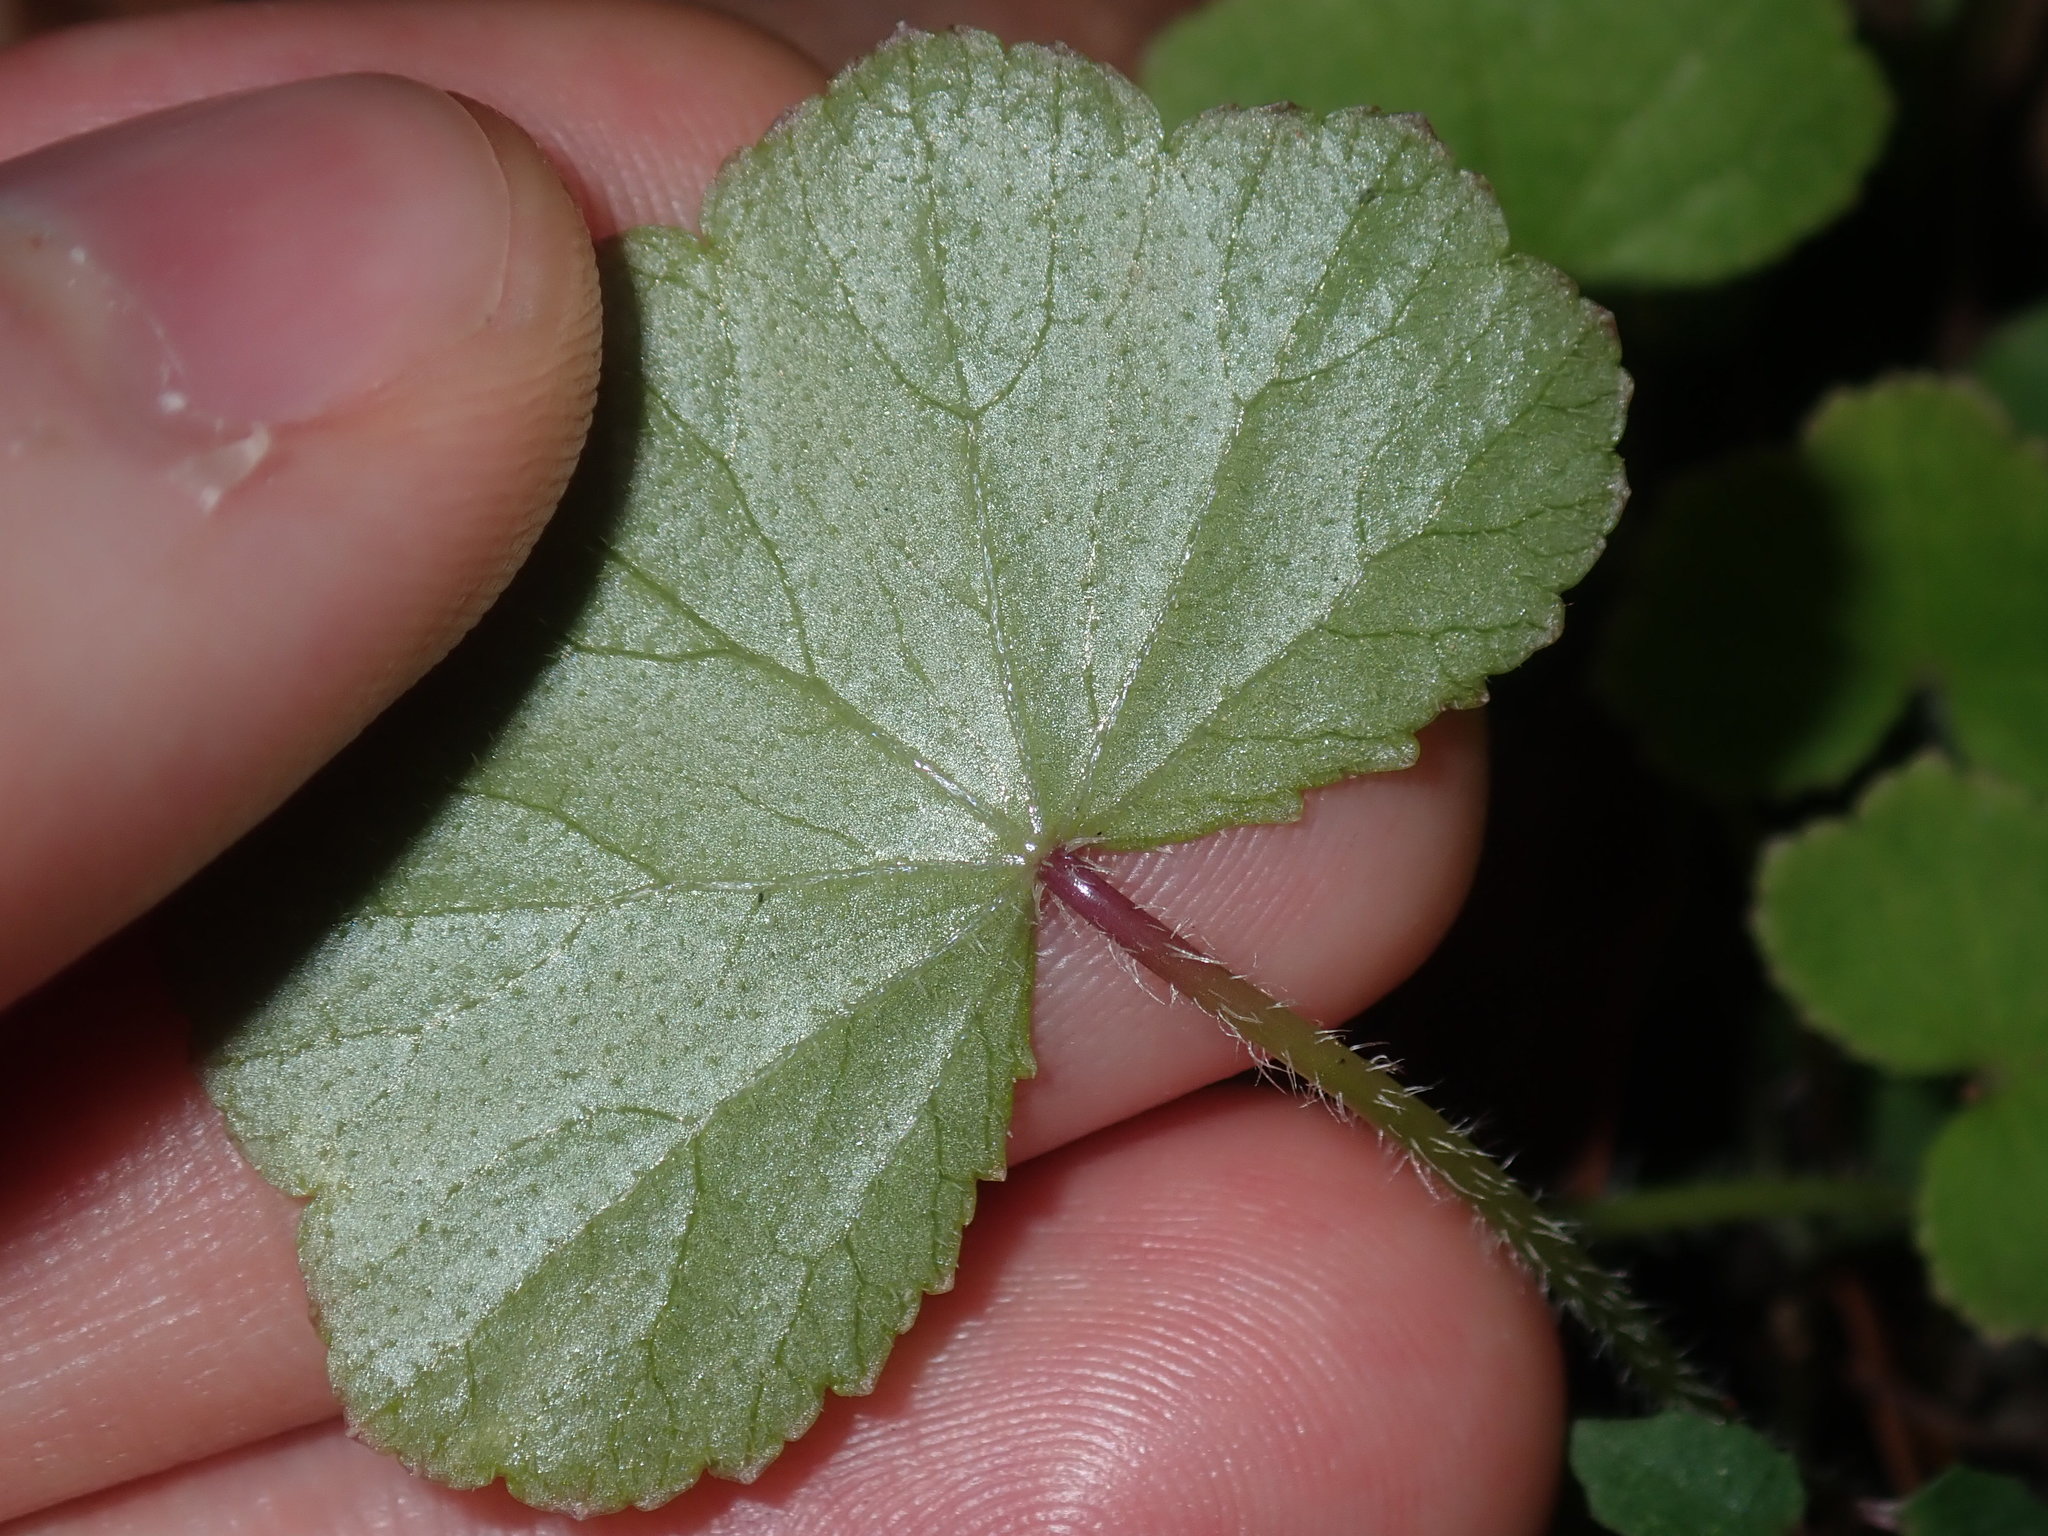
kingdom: Plantae
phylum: Tracheophyta
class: Magnoliopsida
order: Apiales
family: Araliaceae
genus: Hydrocotyle
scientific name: Hydrocotyle hirta
